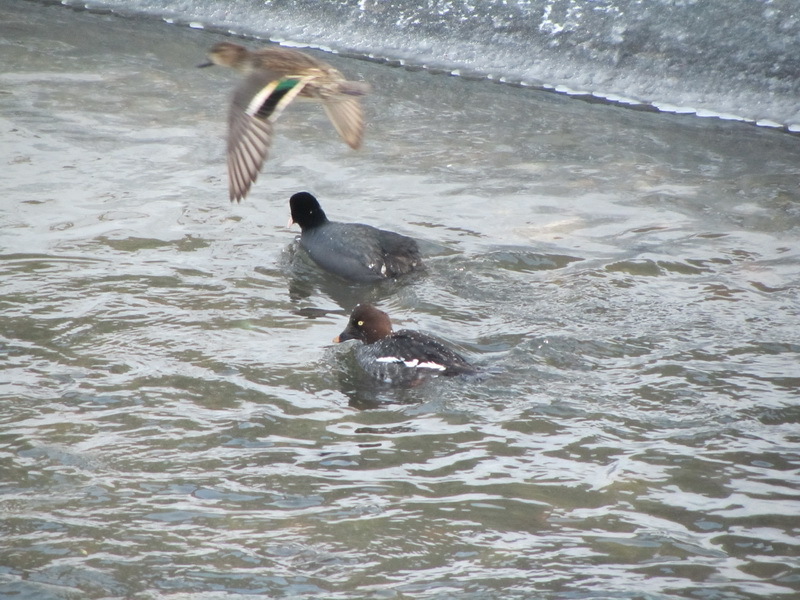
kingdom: Animalia
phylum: Chordata
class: Aves
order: Anseriformes
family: Anatidae
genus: Bucephala
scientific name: Bucephala clangula
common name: Common goldeneye
